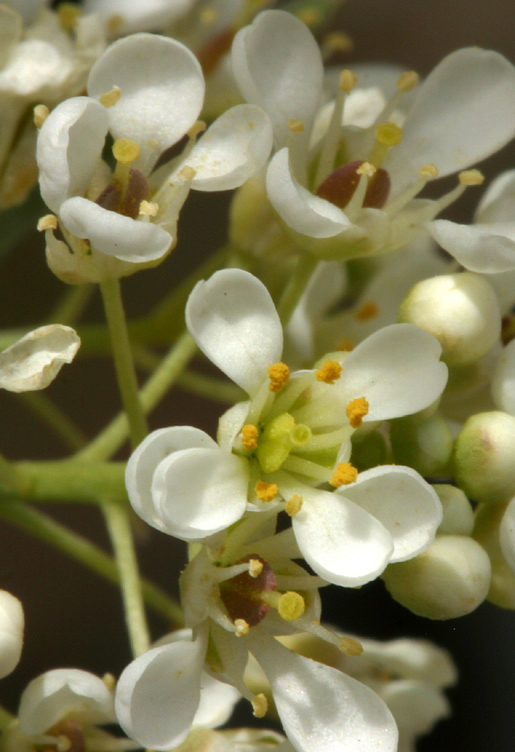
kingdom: Plantae
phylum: Tracheophyta
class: Magnoliopsida
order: Brassicales
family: Brassicaceae
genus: Lepidium
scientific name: Lepidium fremontii
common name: Fremont's pepperwort
